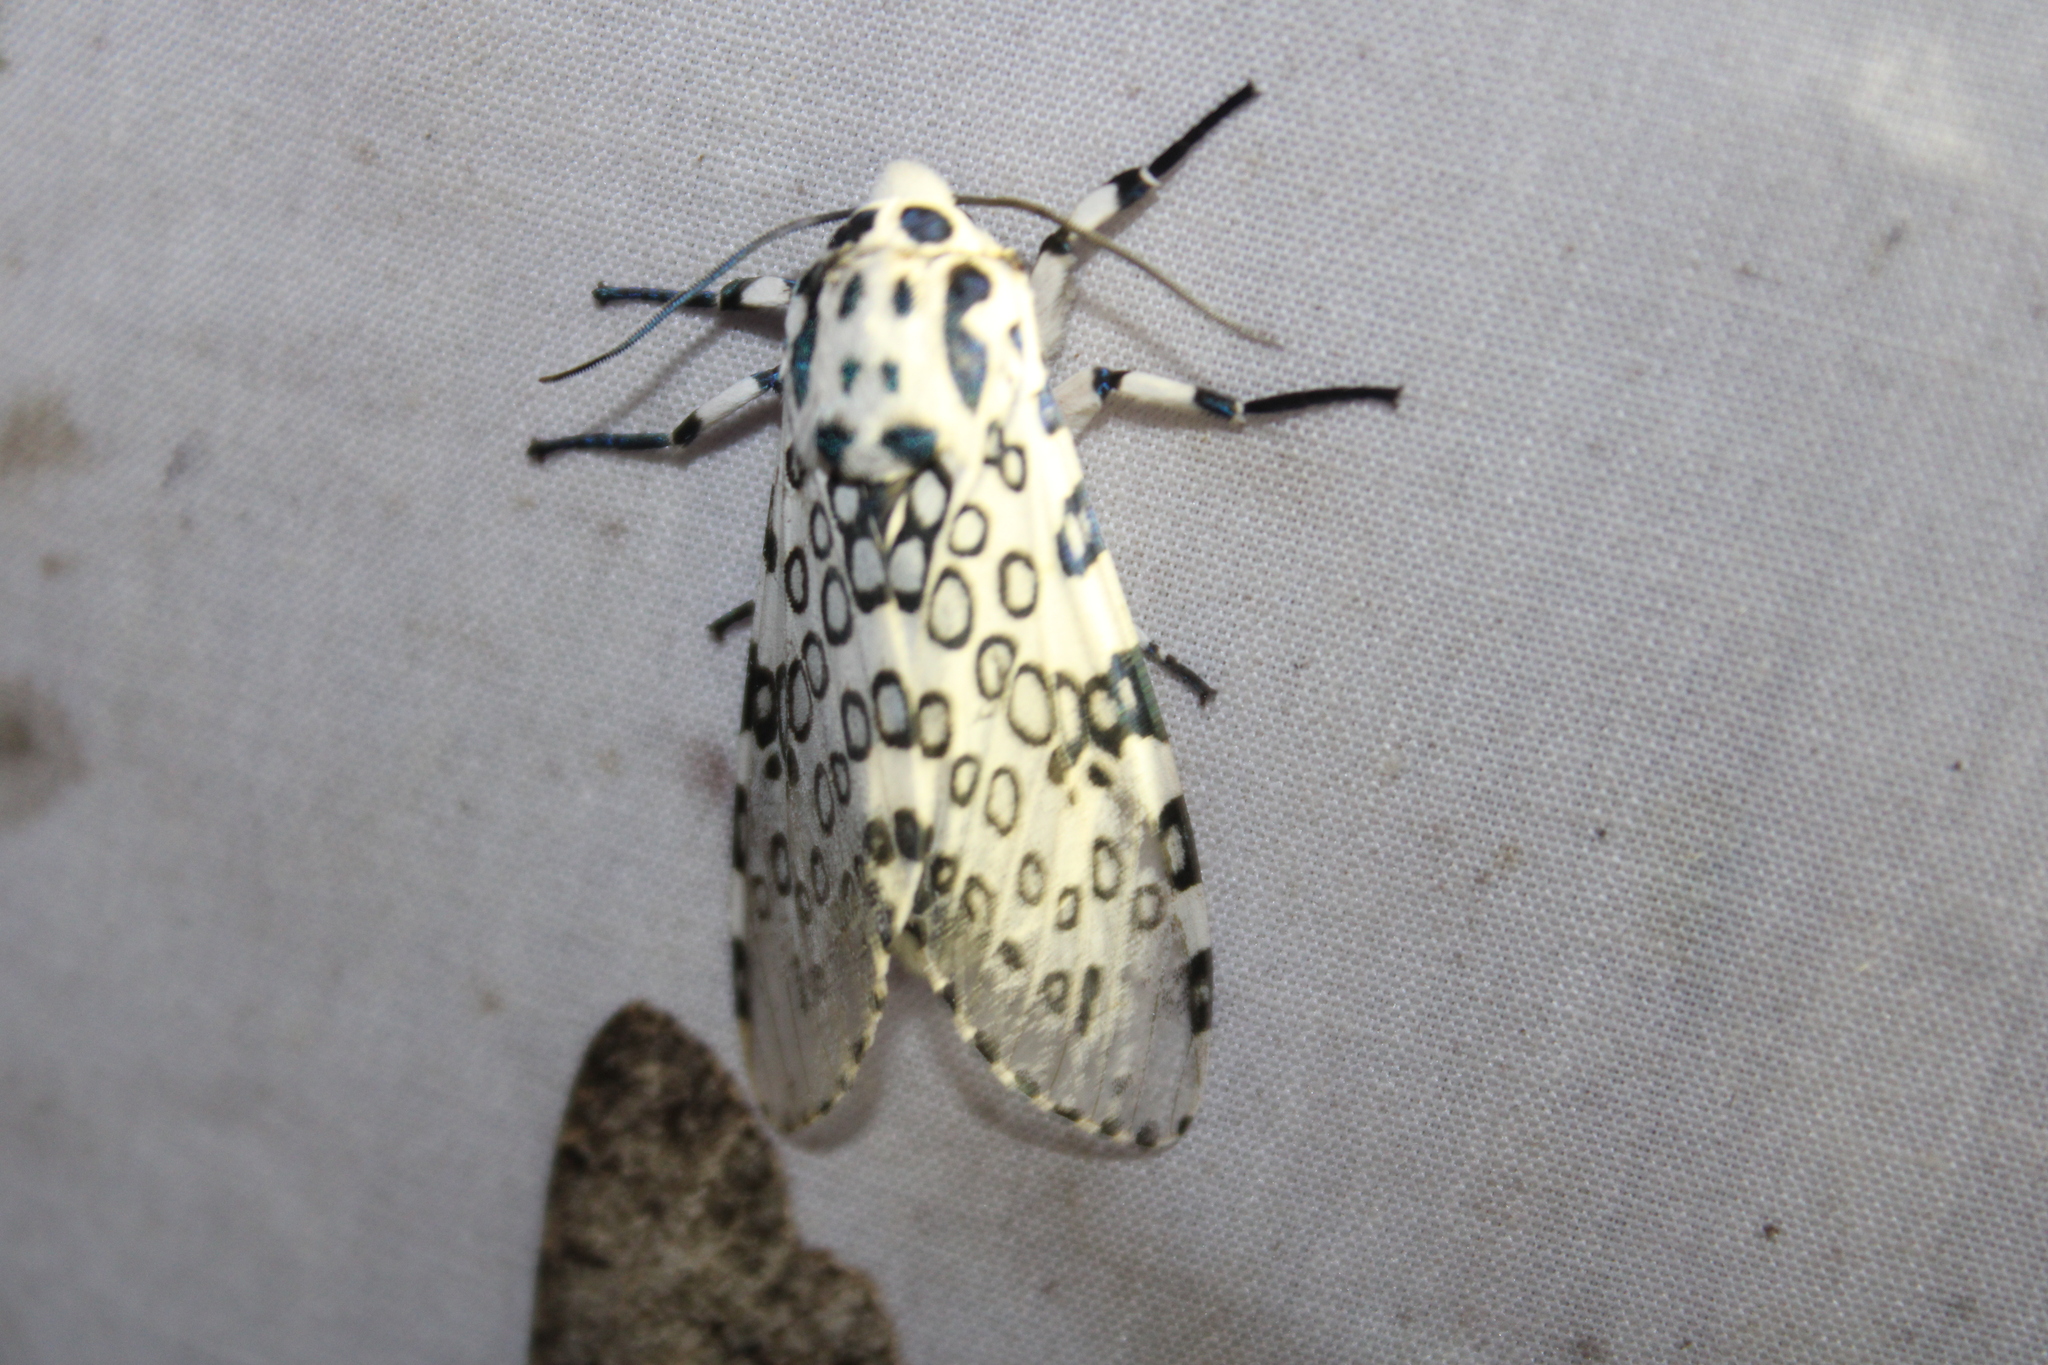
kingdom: Animalia
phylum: Arthropoda
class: Insecta
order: Lepidoptera
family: Erebidae
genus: Hypercompe
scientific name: Hypercompe scribonia
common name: Giant leopard moth
